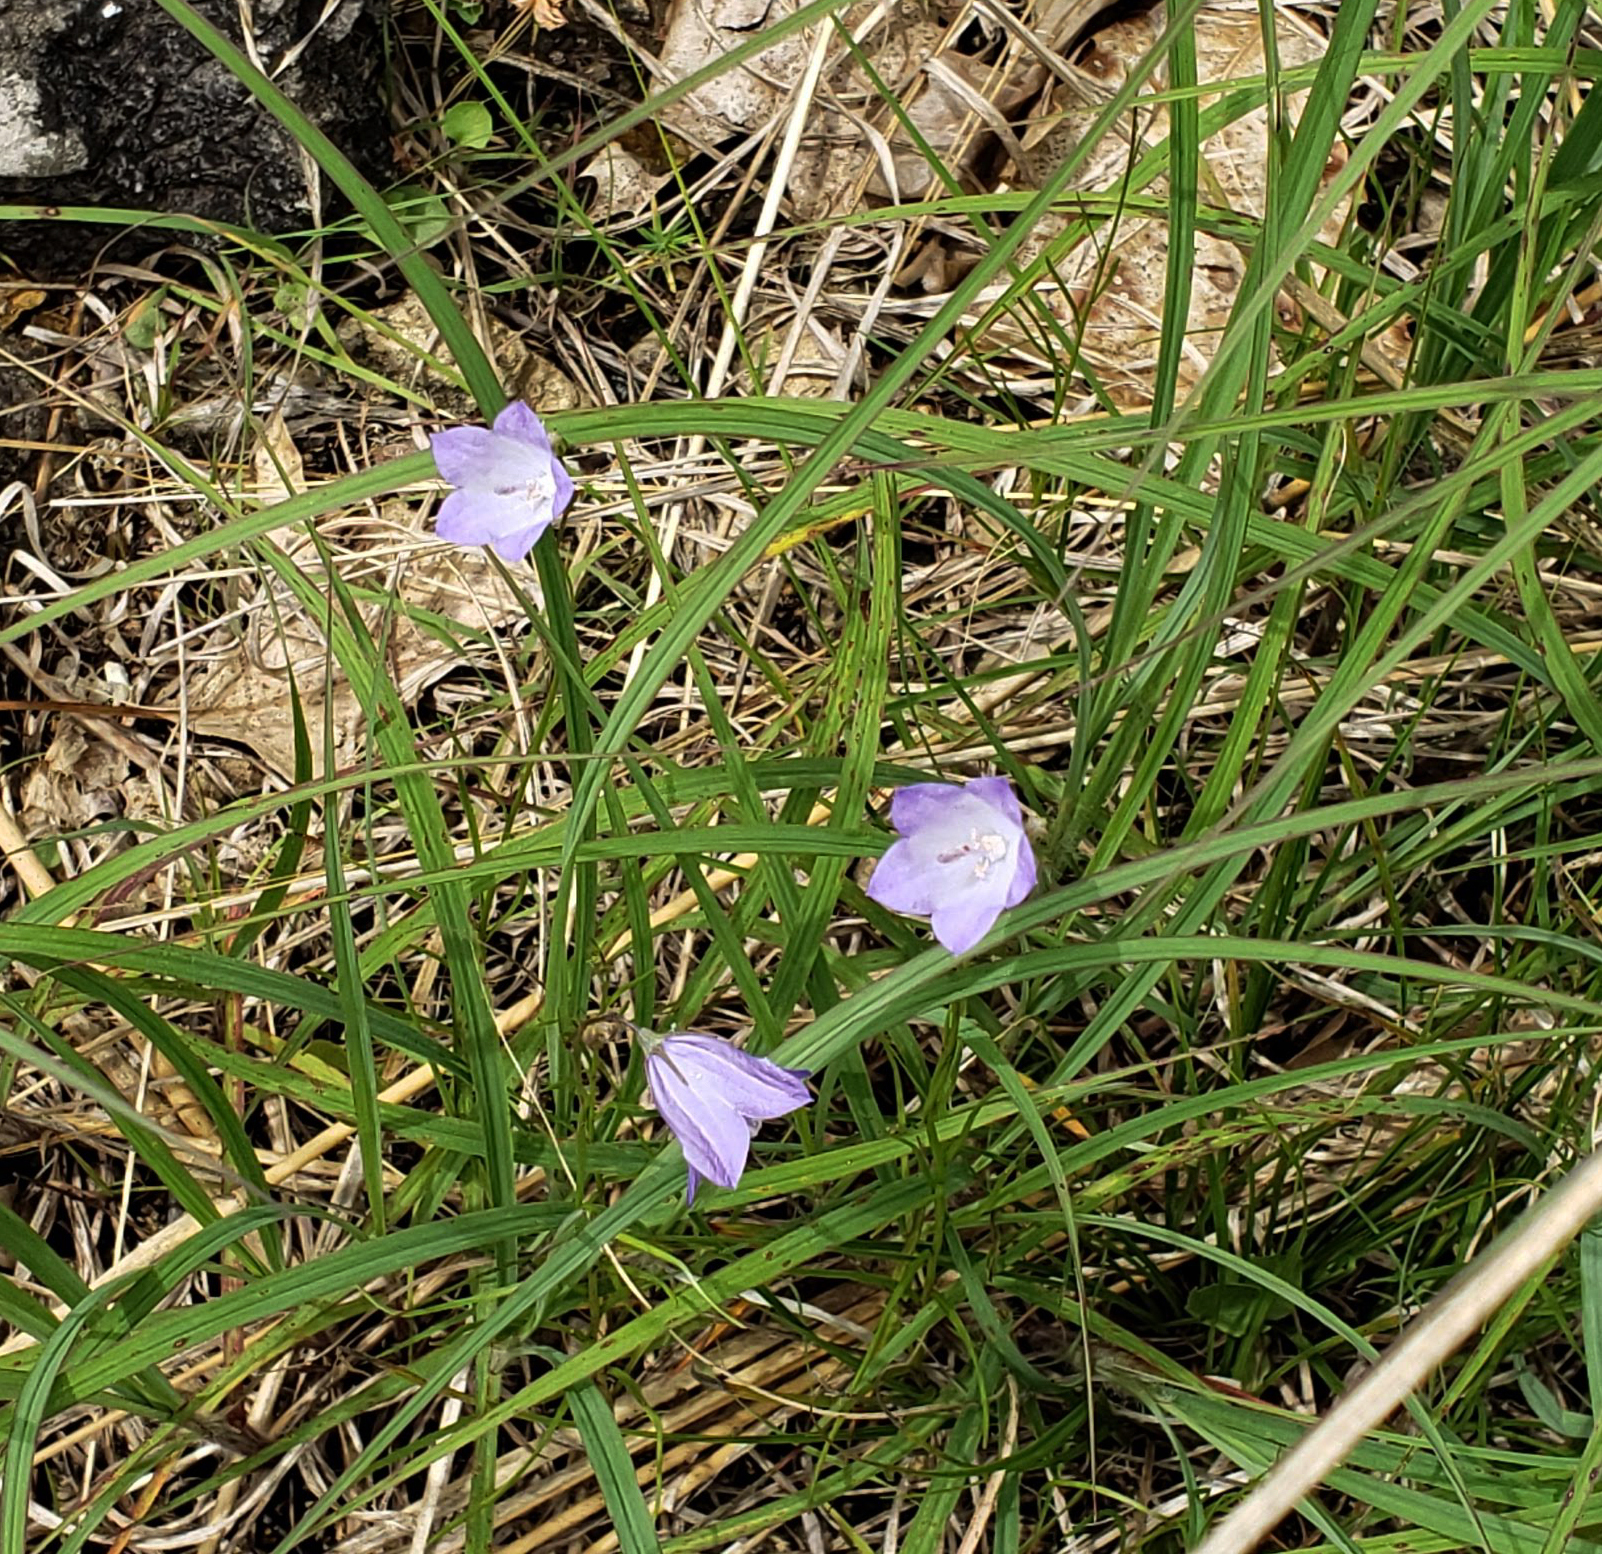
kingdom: Plantae
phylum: Tracheophyta
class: Magnoliopsida
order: Asterales
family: Campanulaceae
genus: Campanula
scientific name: Campanula intercedens
